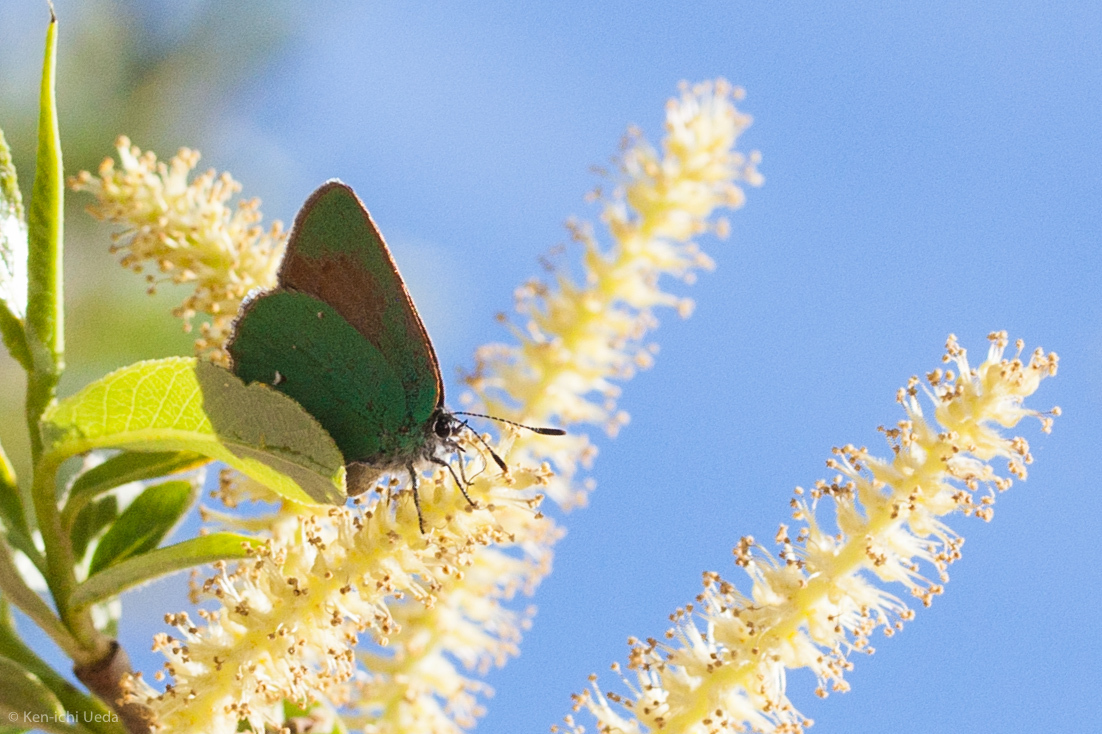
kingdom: Animalia
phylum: Arthropoda
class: Insecta
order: Lepidoptera
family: Lycaenidae
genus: Callophrys
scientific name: Callophrys dumetorum
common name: Bramble hairstreak
